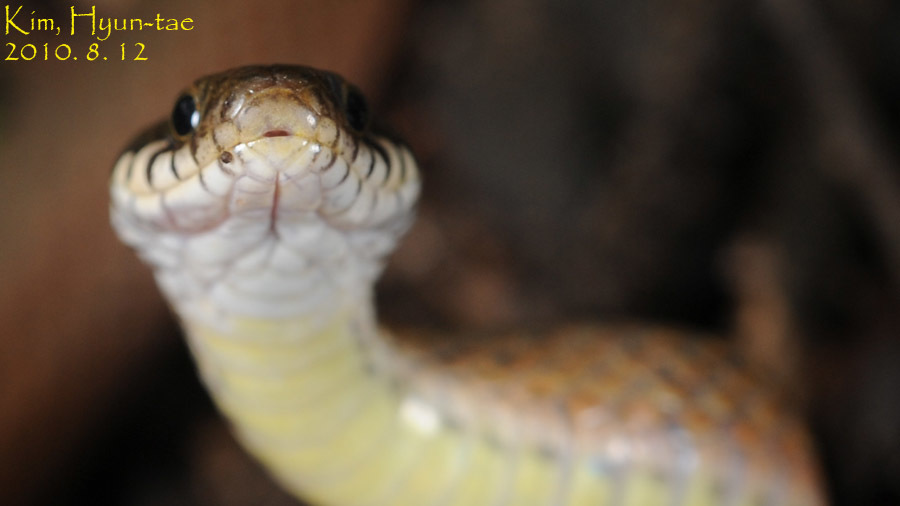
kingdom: Animalia
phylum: Chordata
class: Squamata
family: Colubridae
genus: Hebius
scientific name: Hebius vibakari
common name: Japanese keelback
